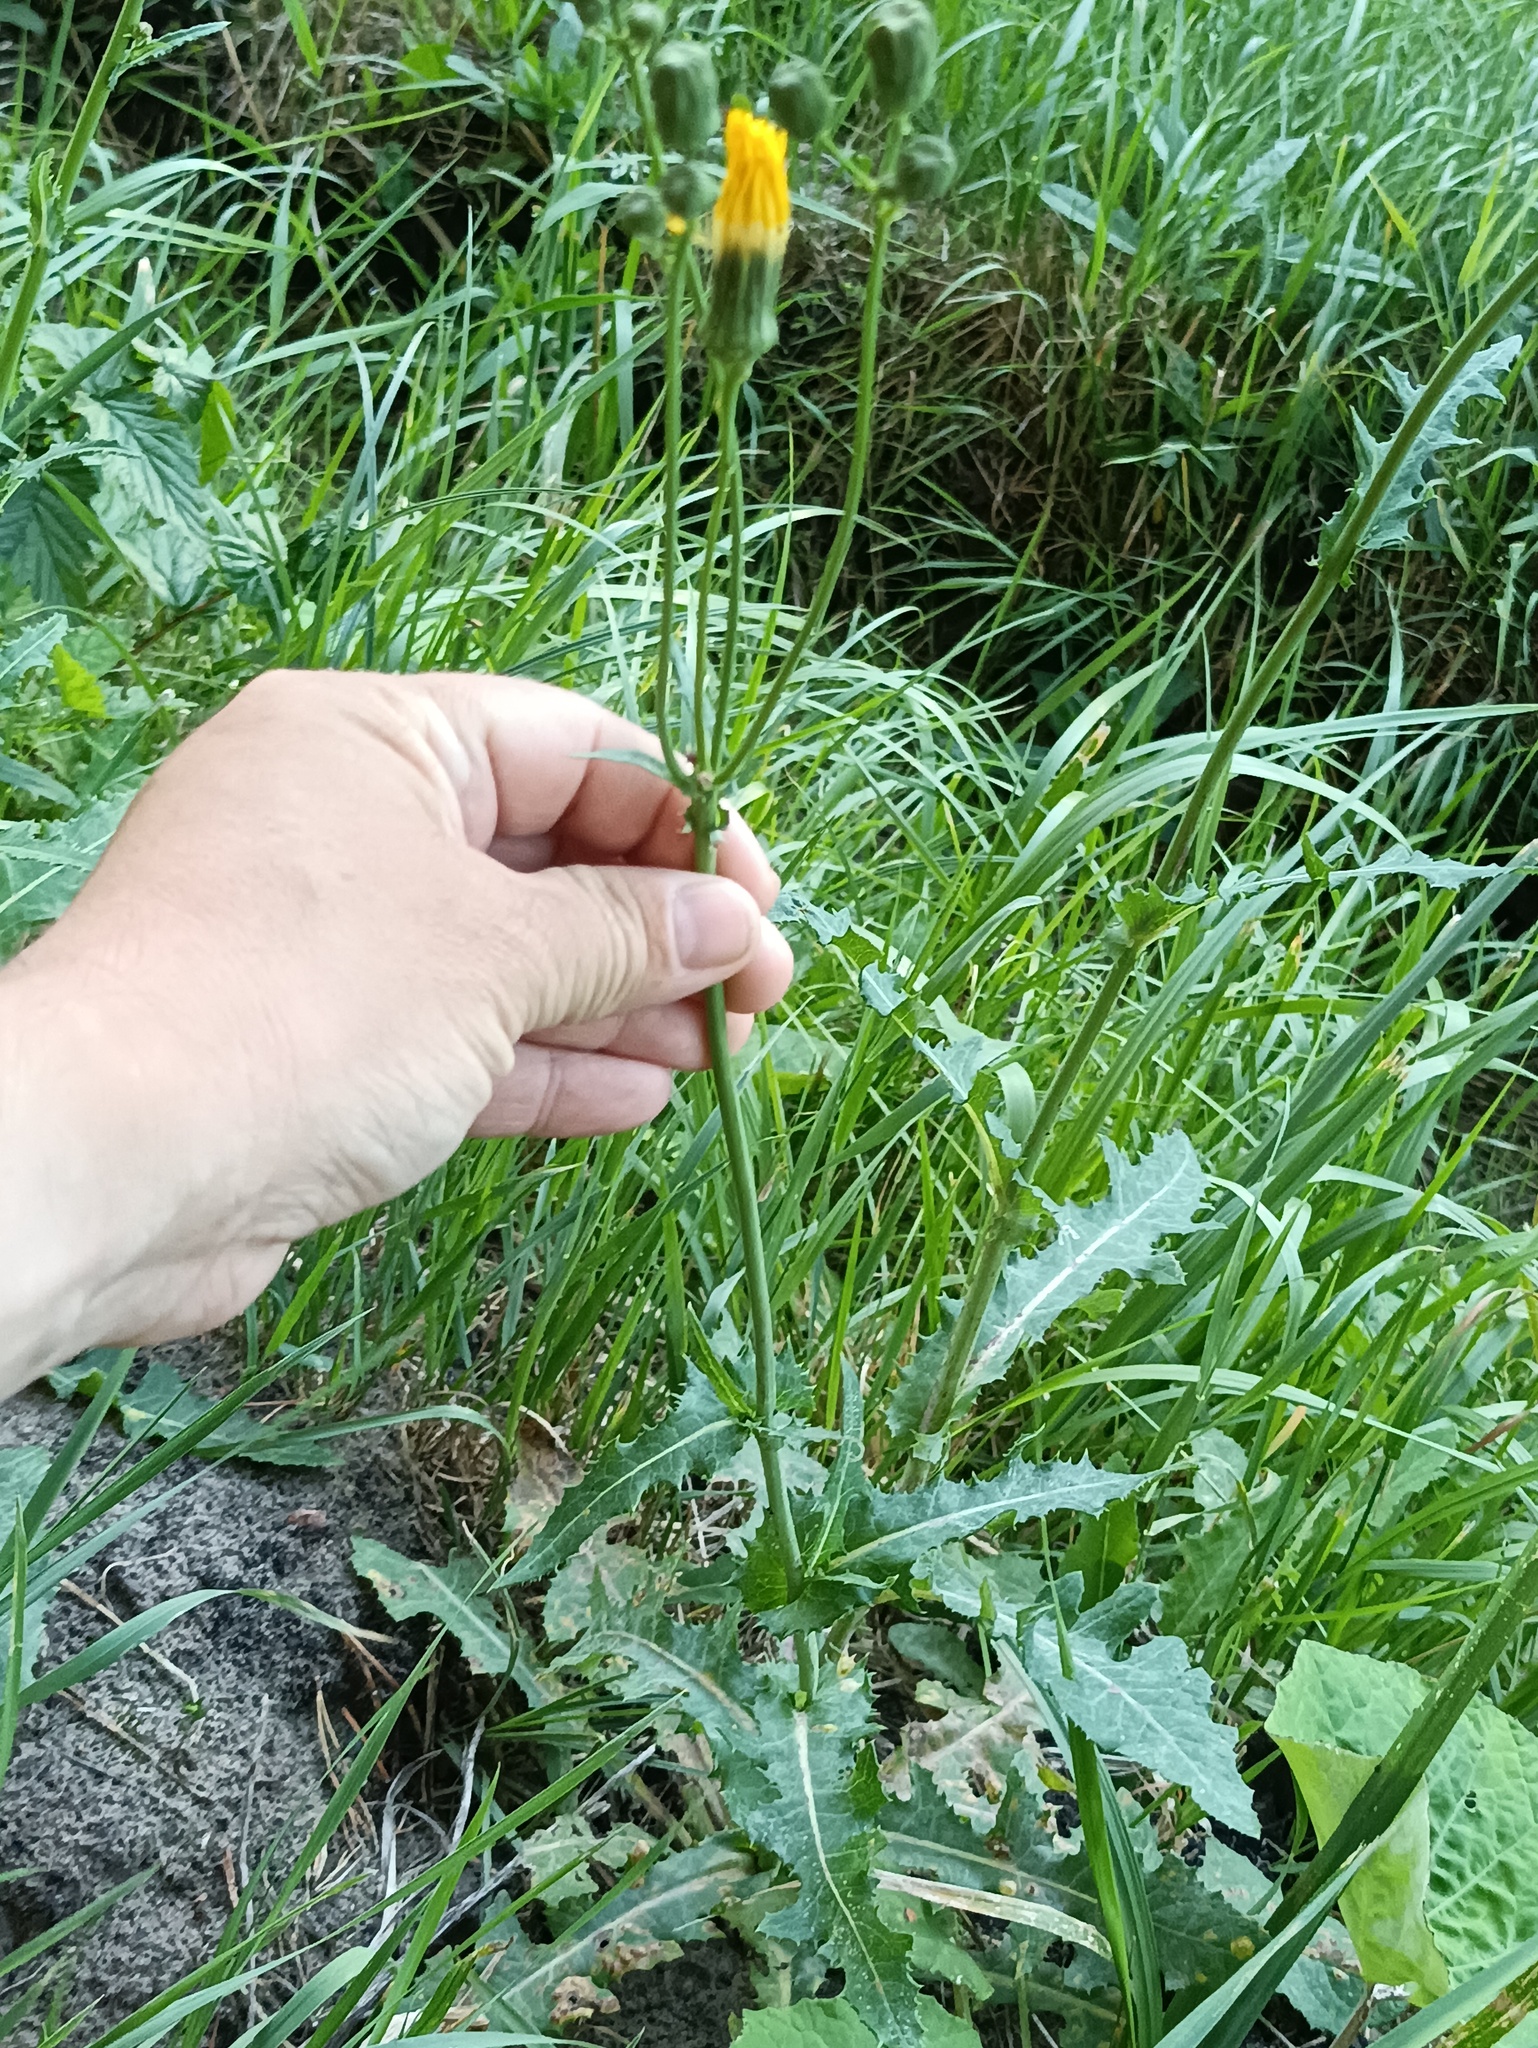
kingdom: Plantae
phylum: Tracheophyta
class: Magnoliopsida
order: Asterales
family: Asteraceae
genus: Sonchus
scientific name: Sonchus arvensis
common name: Perennial sow-thistle
